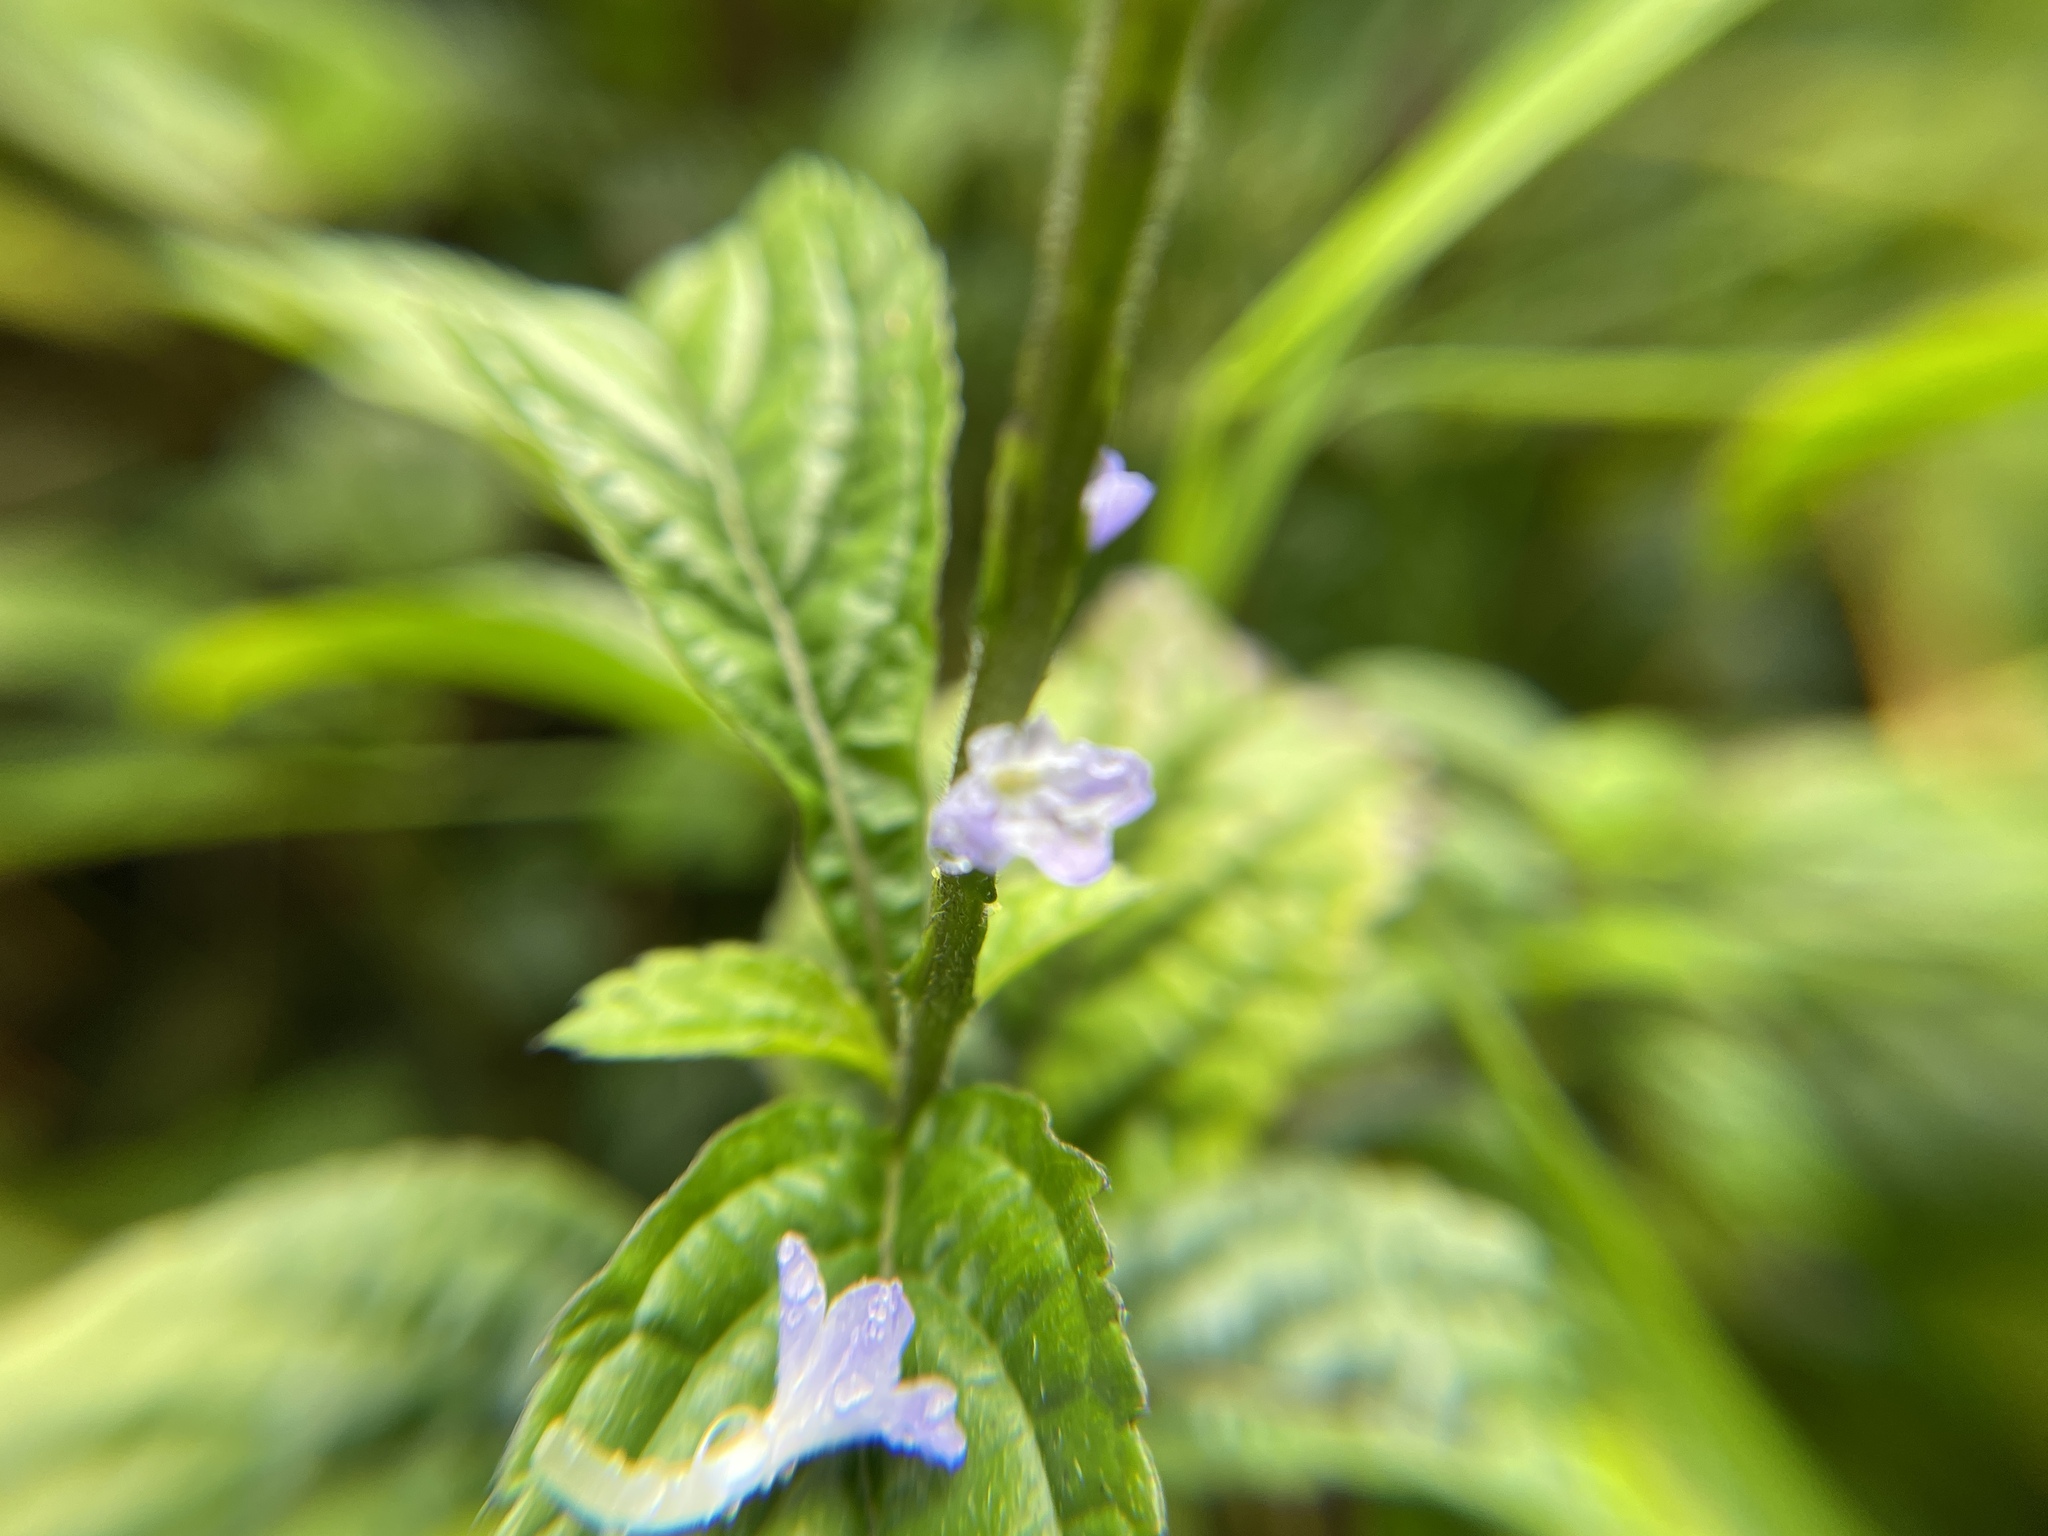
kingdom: Plantae
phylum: Tracheophyta
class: Magnoliopsida
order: Lamiales
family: Verbenaceae
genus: Stachytarpheta
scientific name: Stachytarpheta cayennensis
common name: Cayenne porterweed
